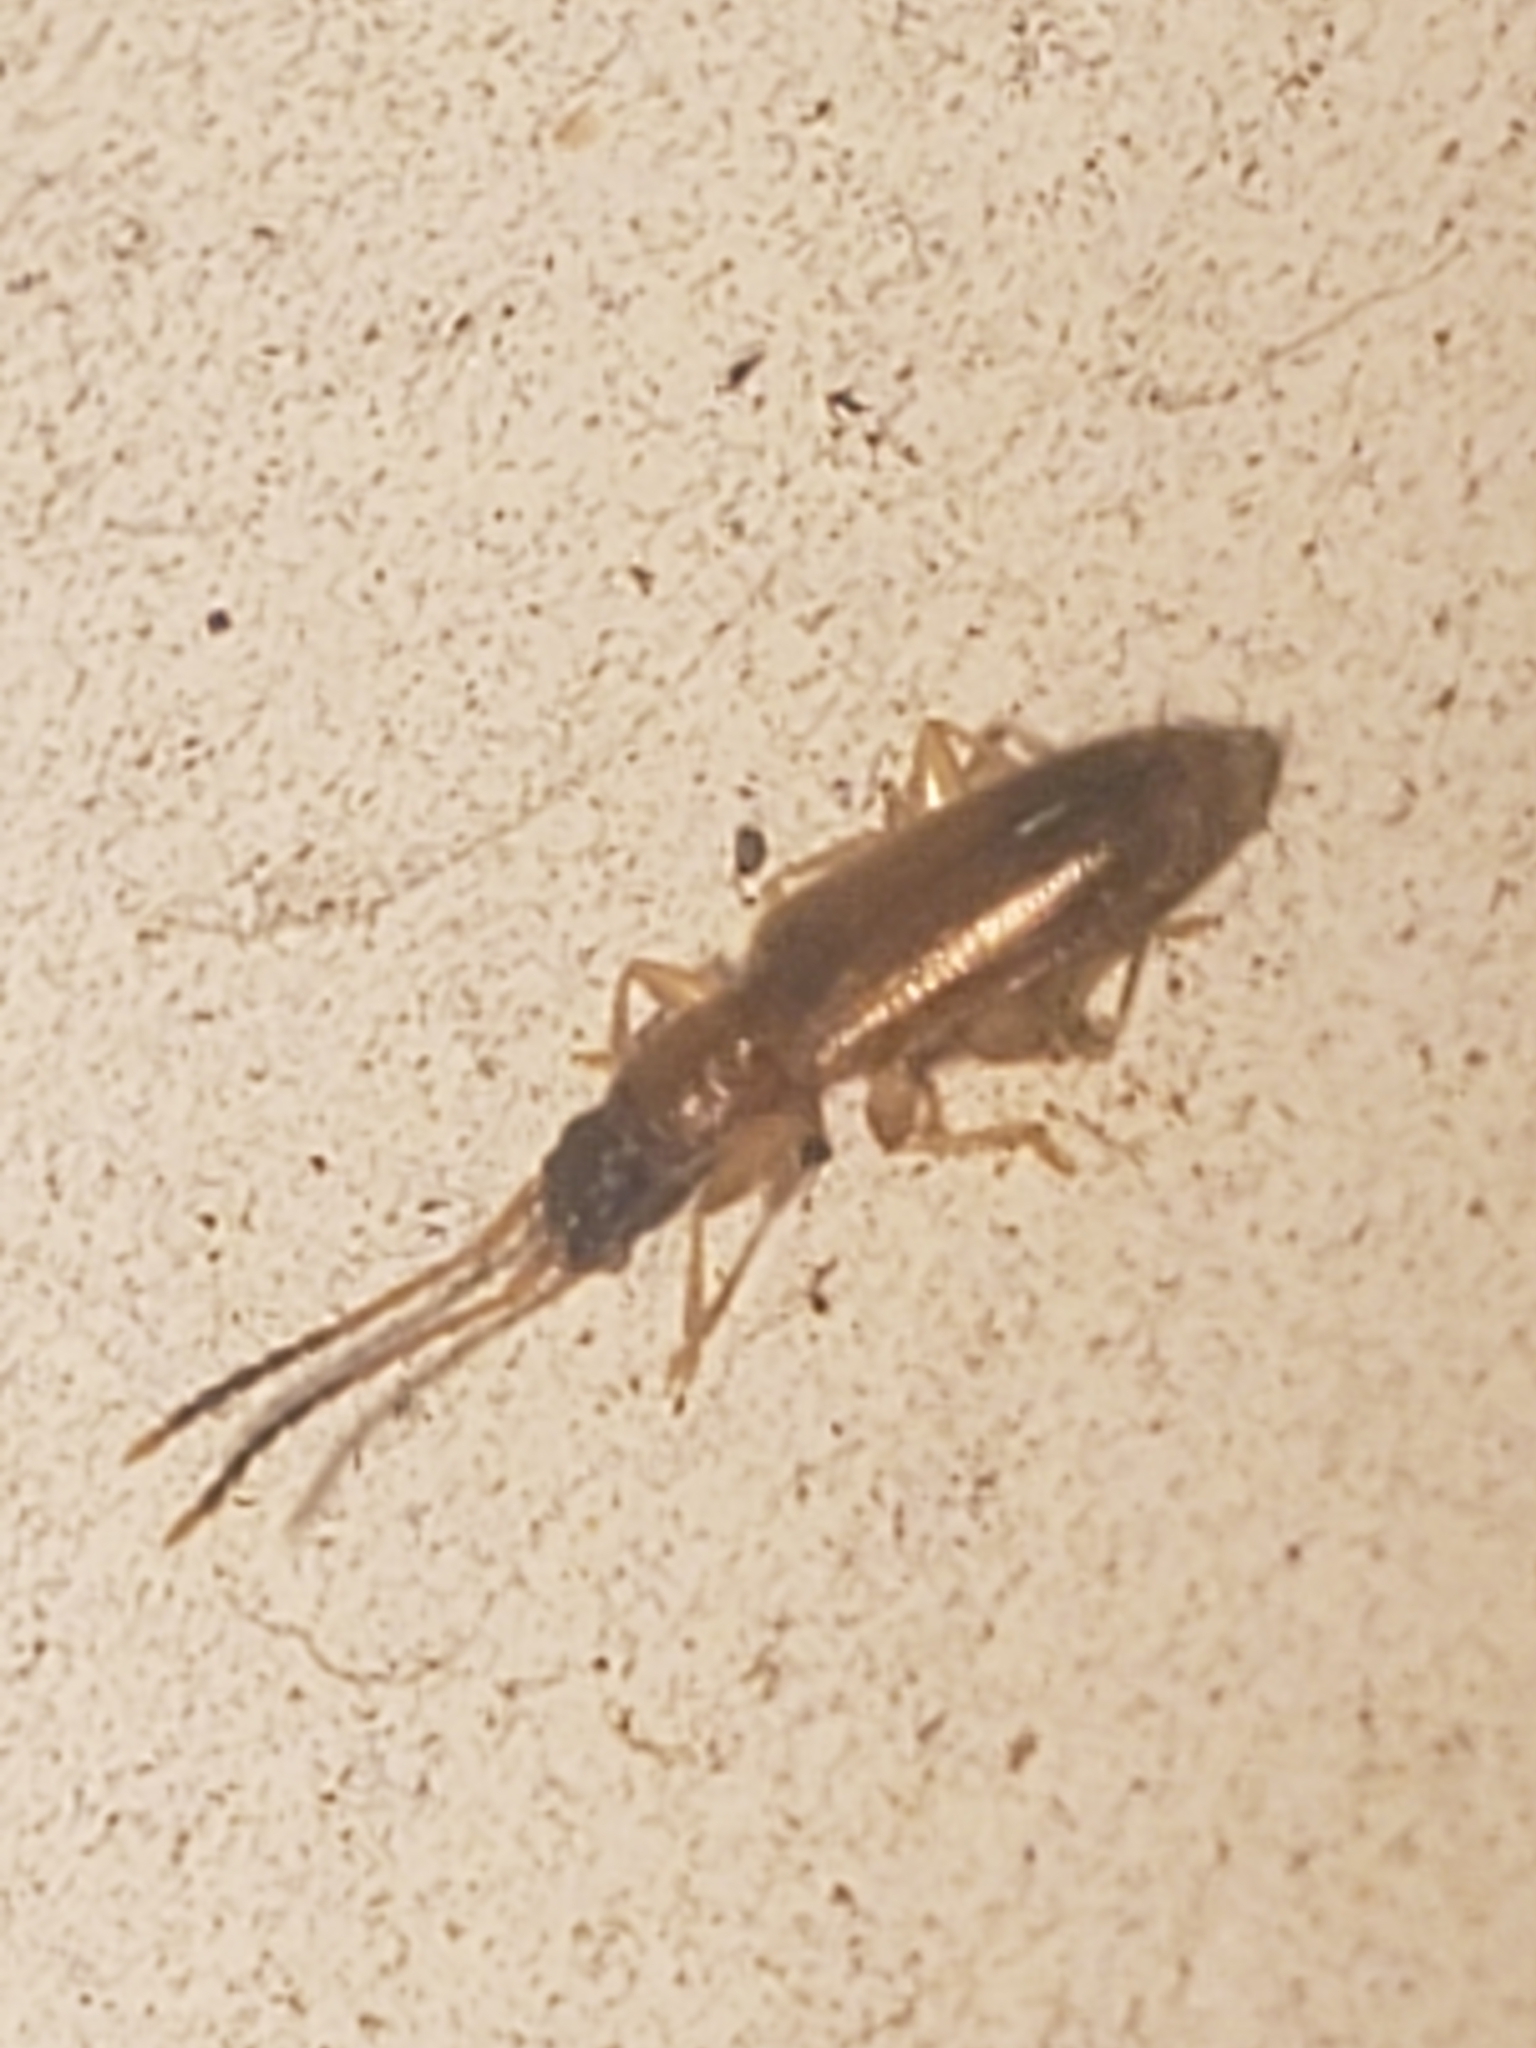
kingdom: Animalia
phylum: Arthropoda
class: Insecta
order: Coleoptera
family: Silvanidae
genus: Telephanus
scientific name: Telephanus velox
